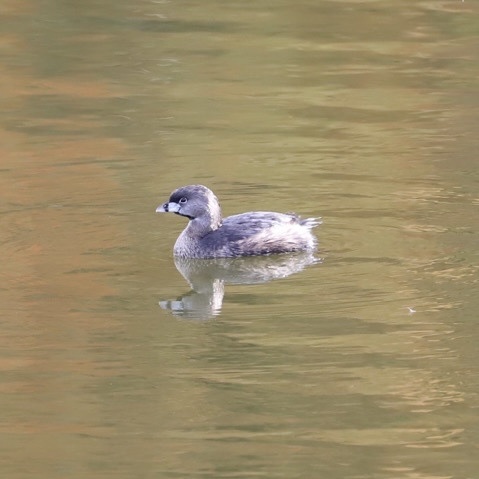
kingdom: Animalia
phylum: Chordata
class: Aves
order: Podicipediformes
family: Podicipedidae
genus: Podilymbus
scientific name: Podilymbus podiceps
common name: Pied-billed grebe
